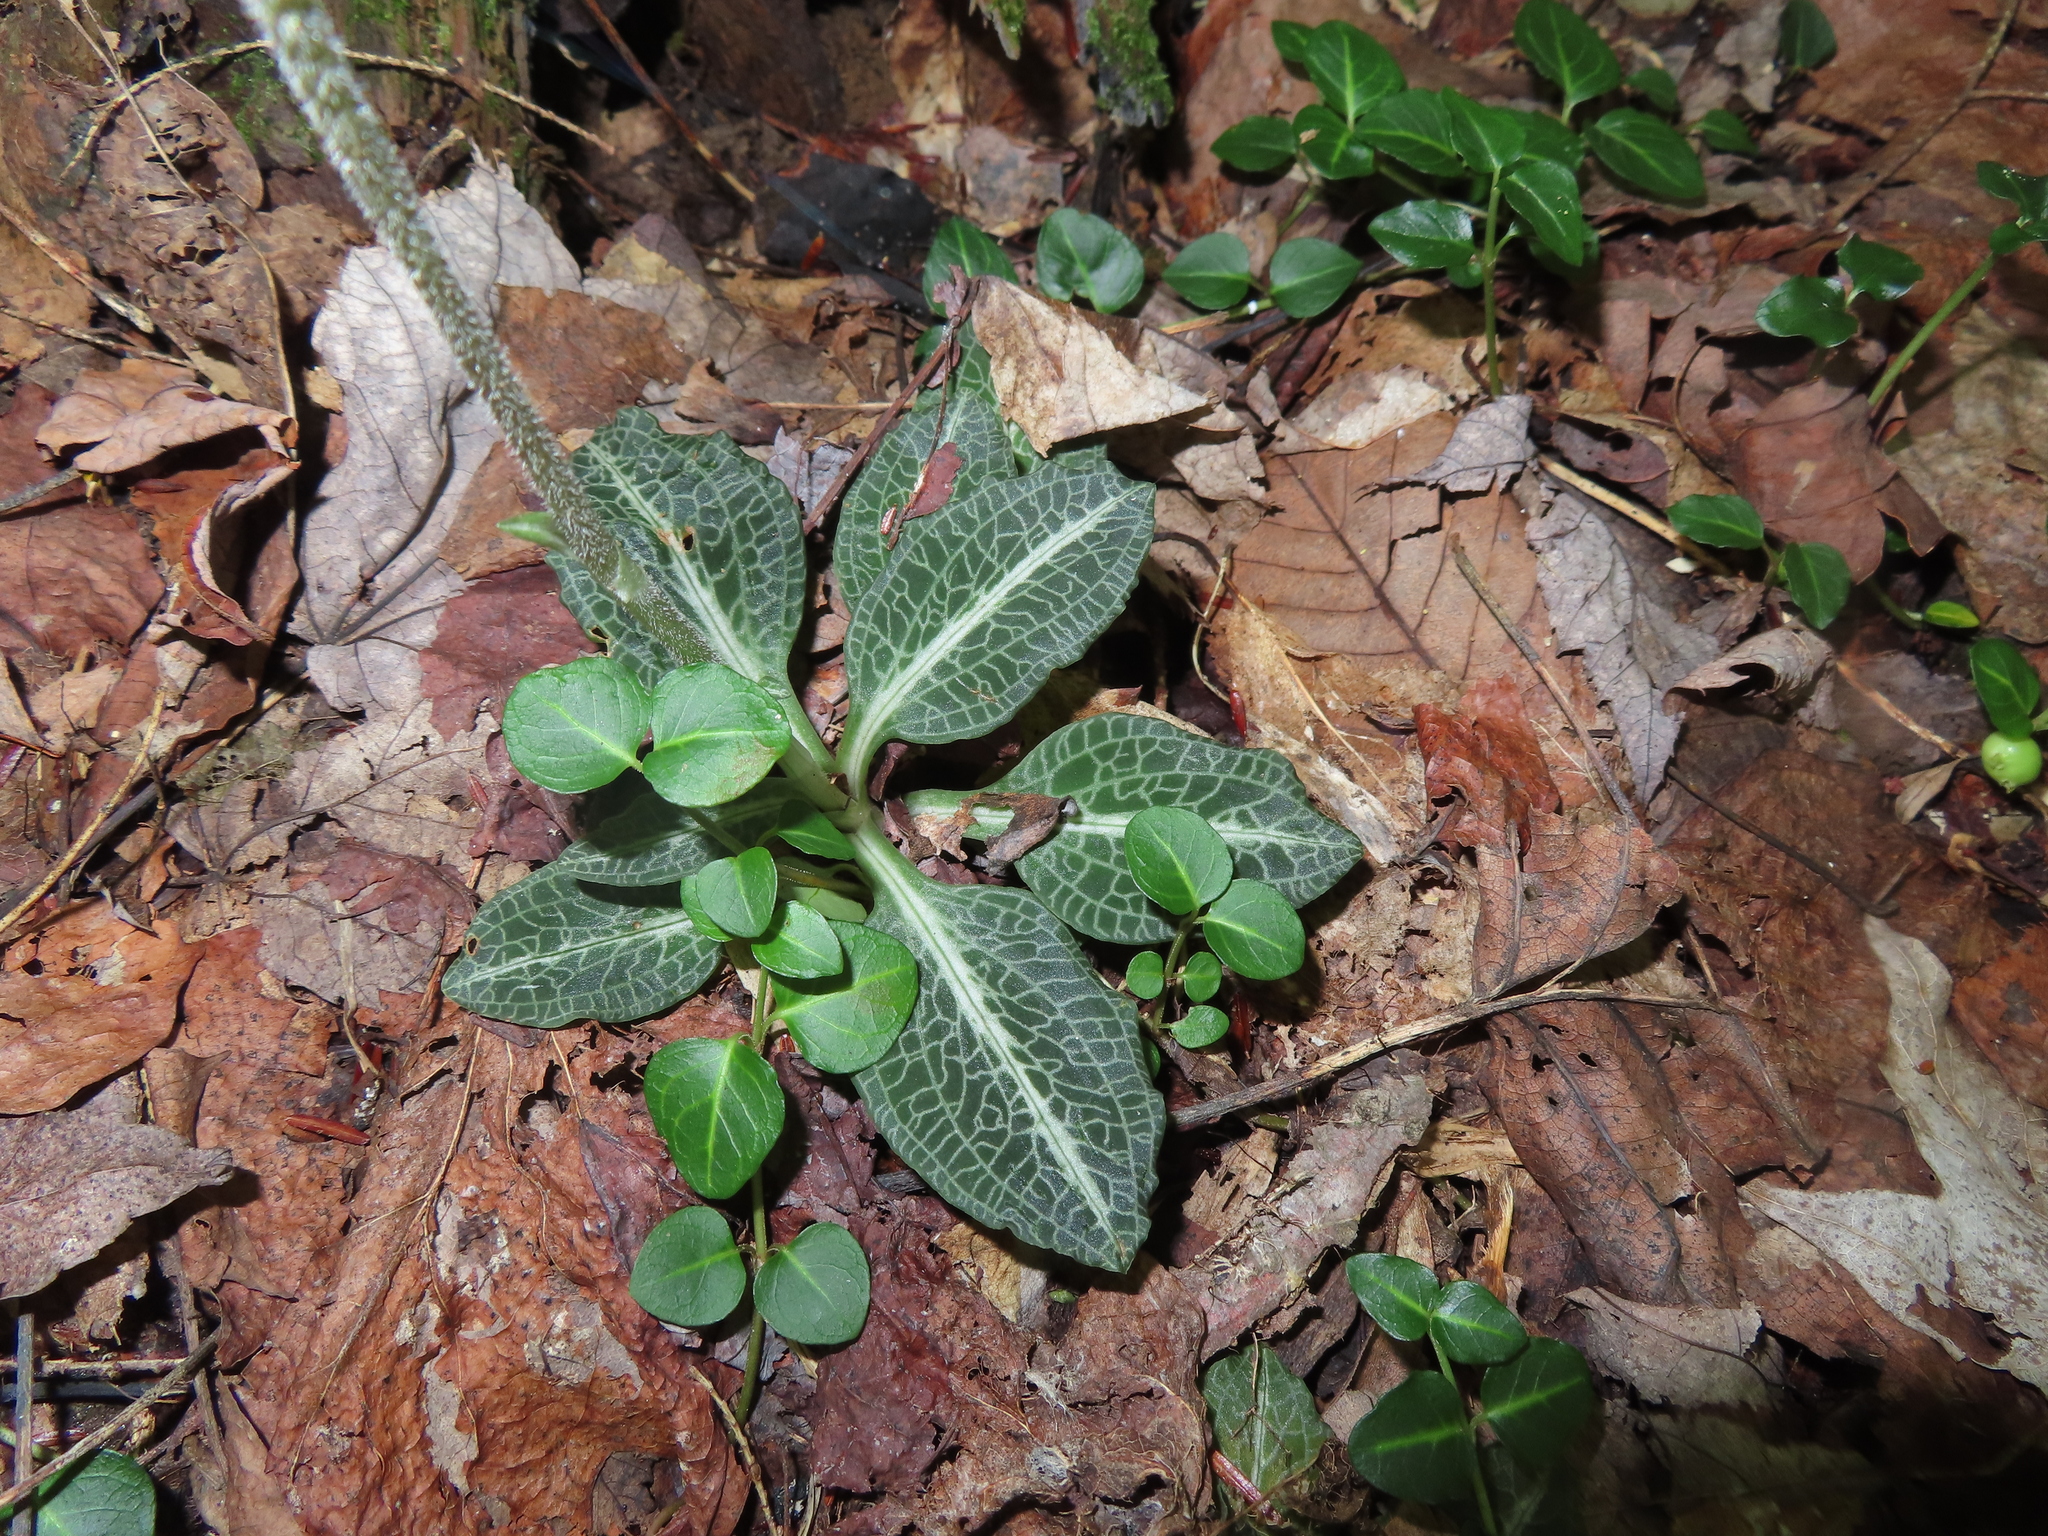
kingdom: Plantae
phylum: Tracheophyta
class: Liliopsida
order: Asparagales
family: Orchidaceae
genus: Goodyera
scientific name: Goodyera pubescens
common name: Downy rattlesnake-plantain
